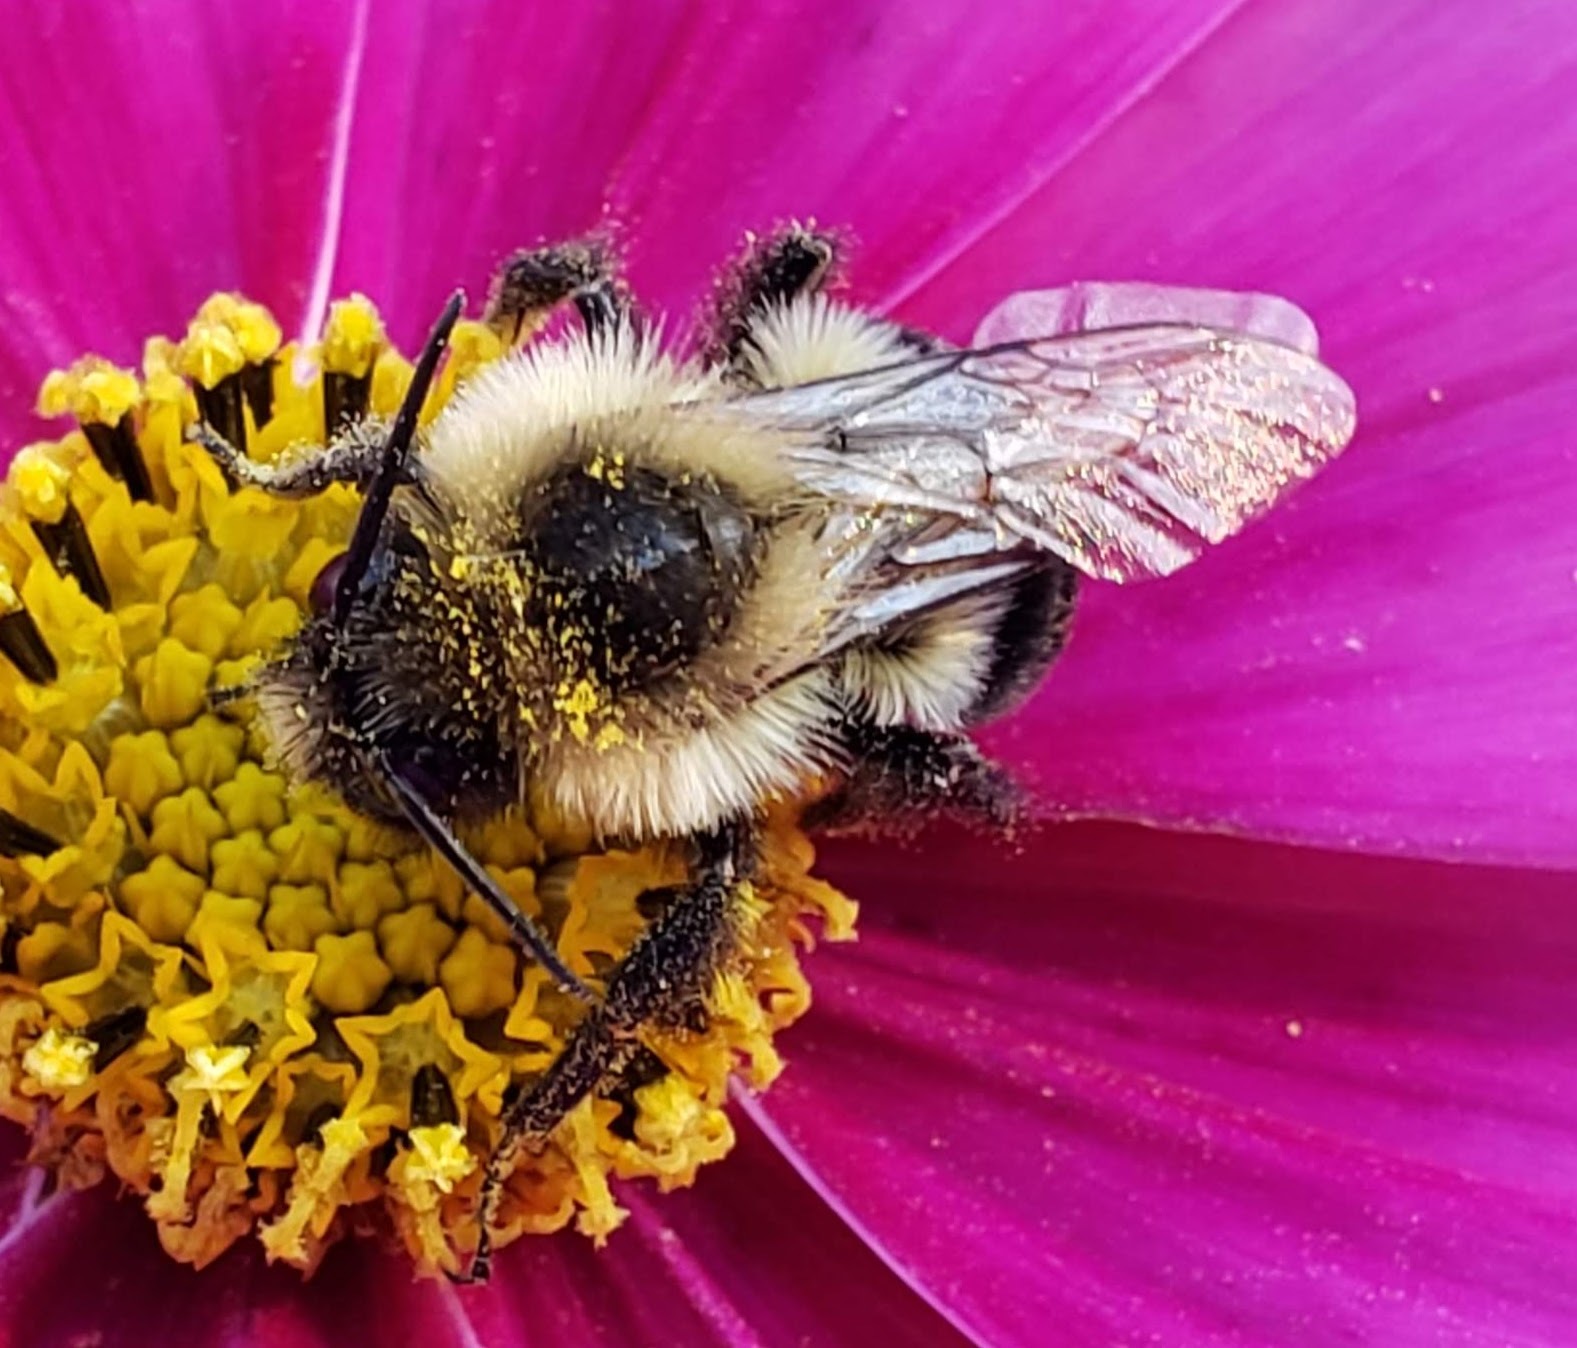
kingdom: Animalia
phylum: Arthropoda
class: Insecta
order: Hymenoptera
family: Apidae
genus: Bombus
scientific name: Bombus impatiens
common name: Common eastern bumble bee
